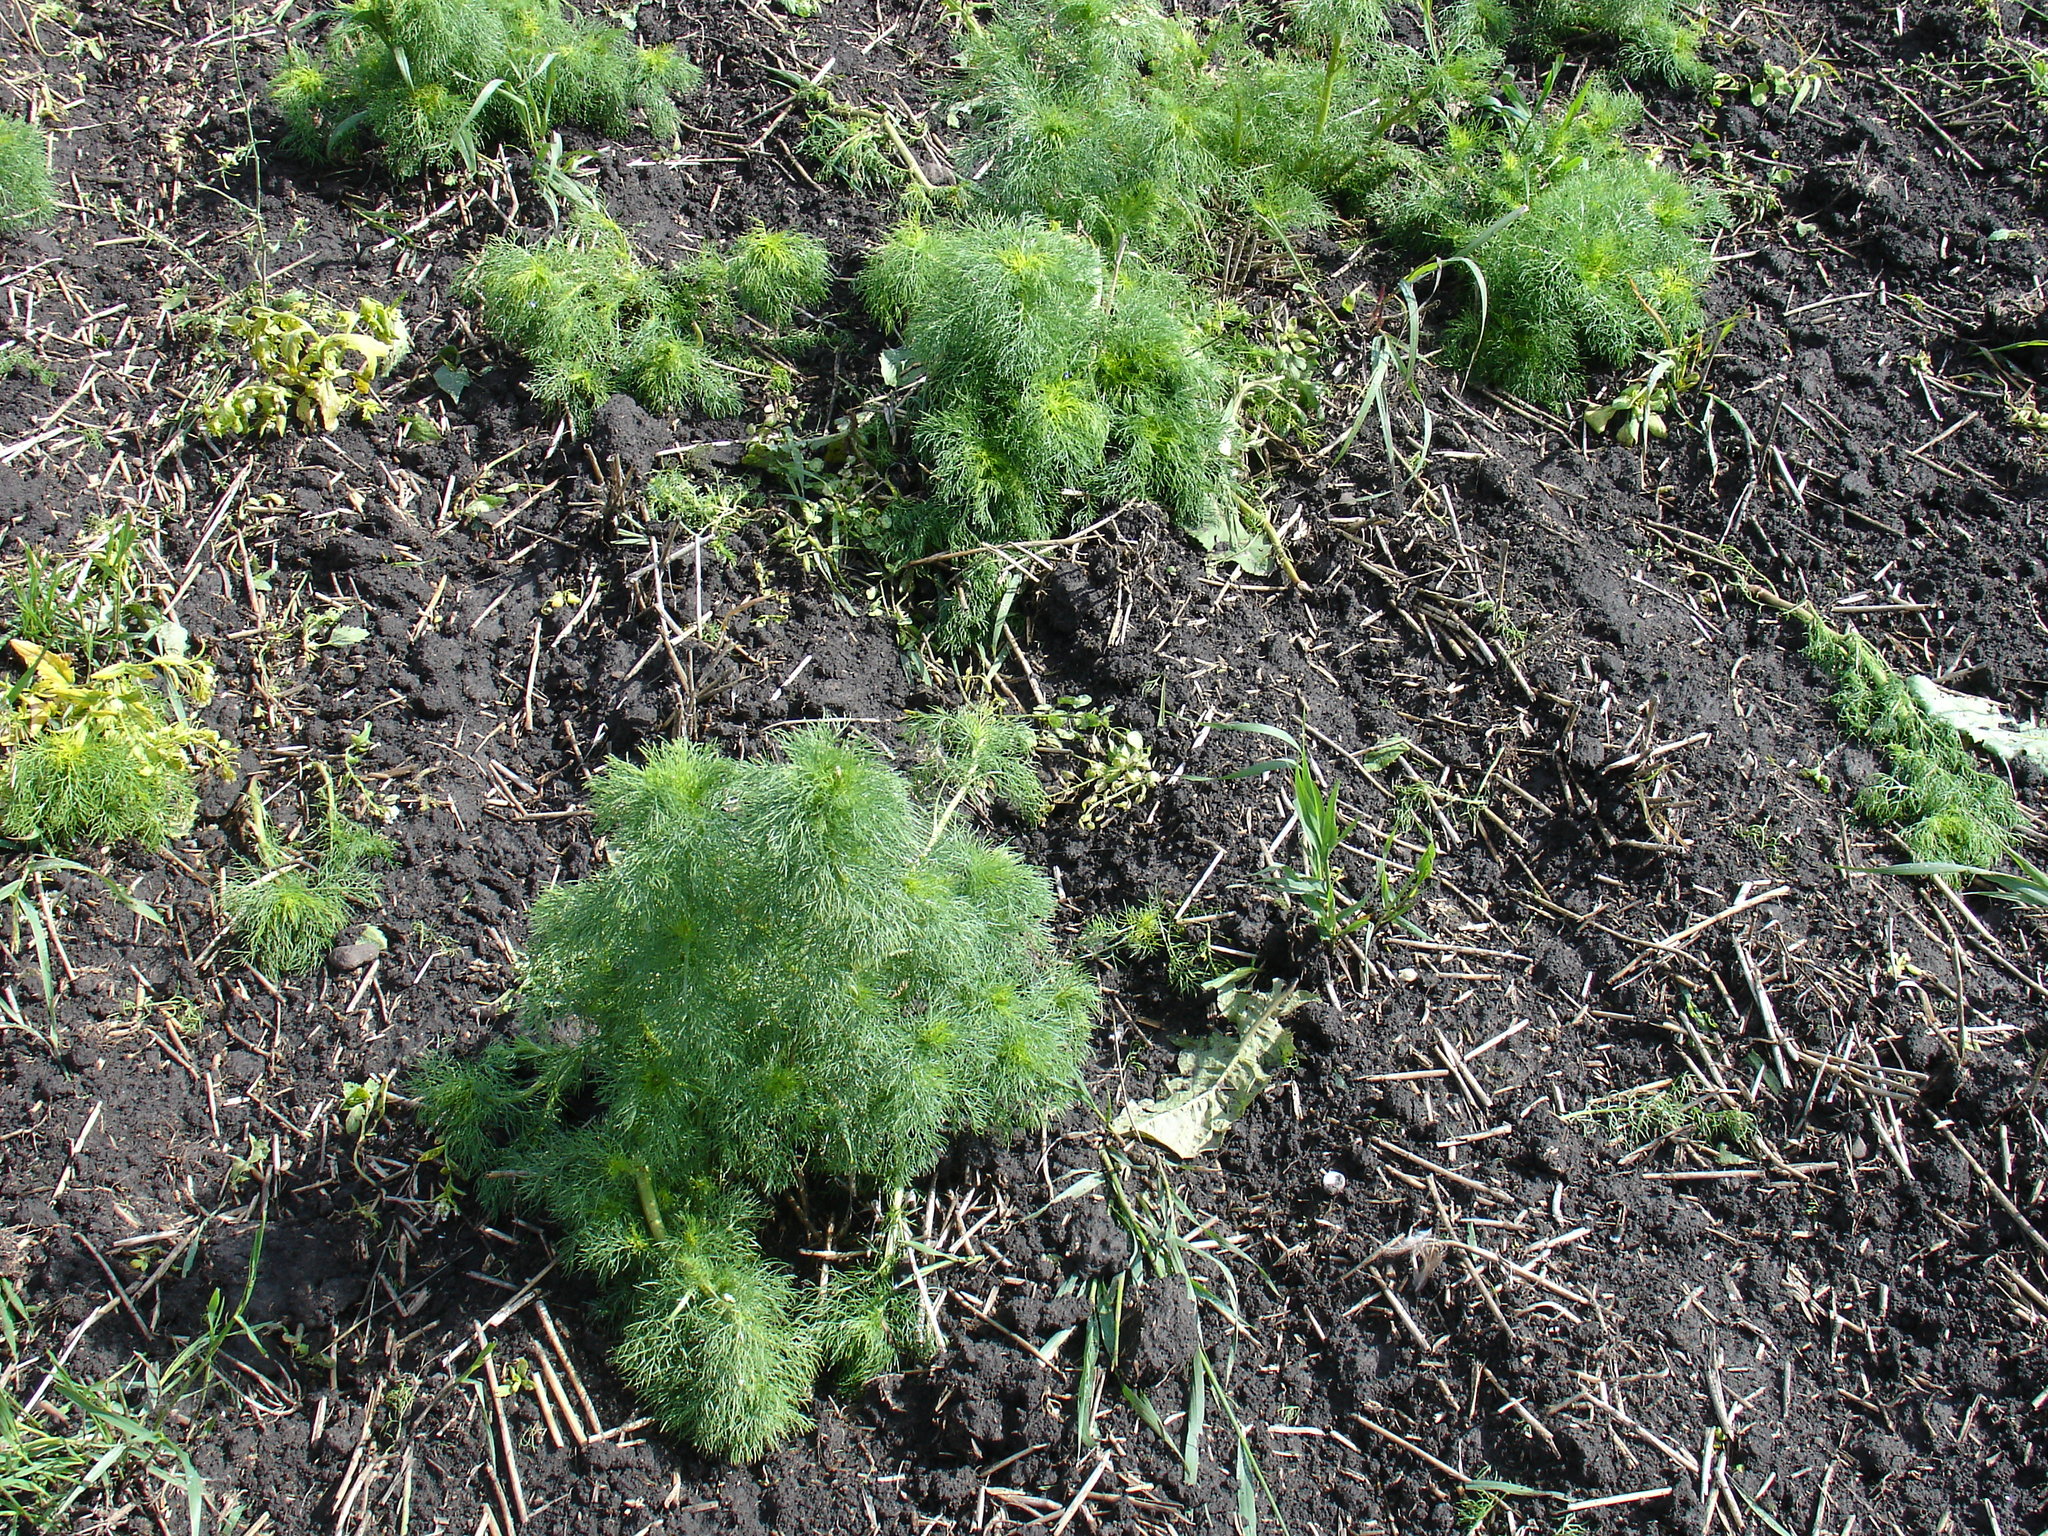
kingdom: Plantae
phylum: Tracheophyta
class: Magnoliopsida
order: Asterales
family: Asteraceae
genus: Tripleurospermum
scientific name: Tripleurospermum inodorum
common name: Scentless mayweed
